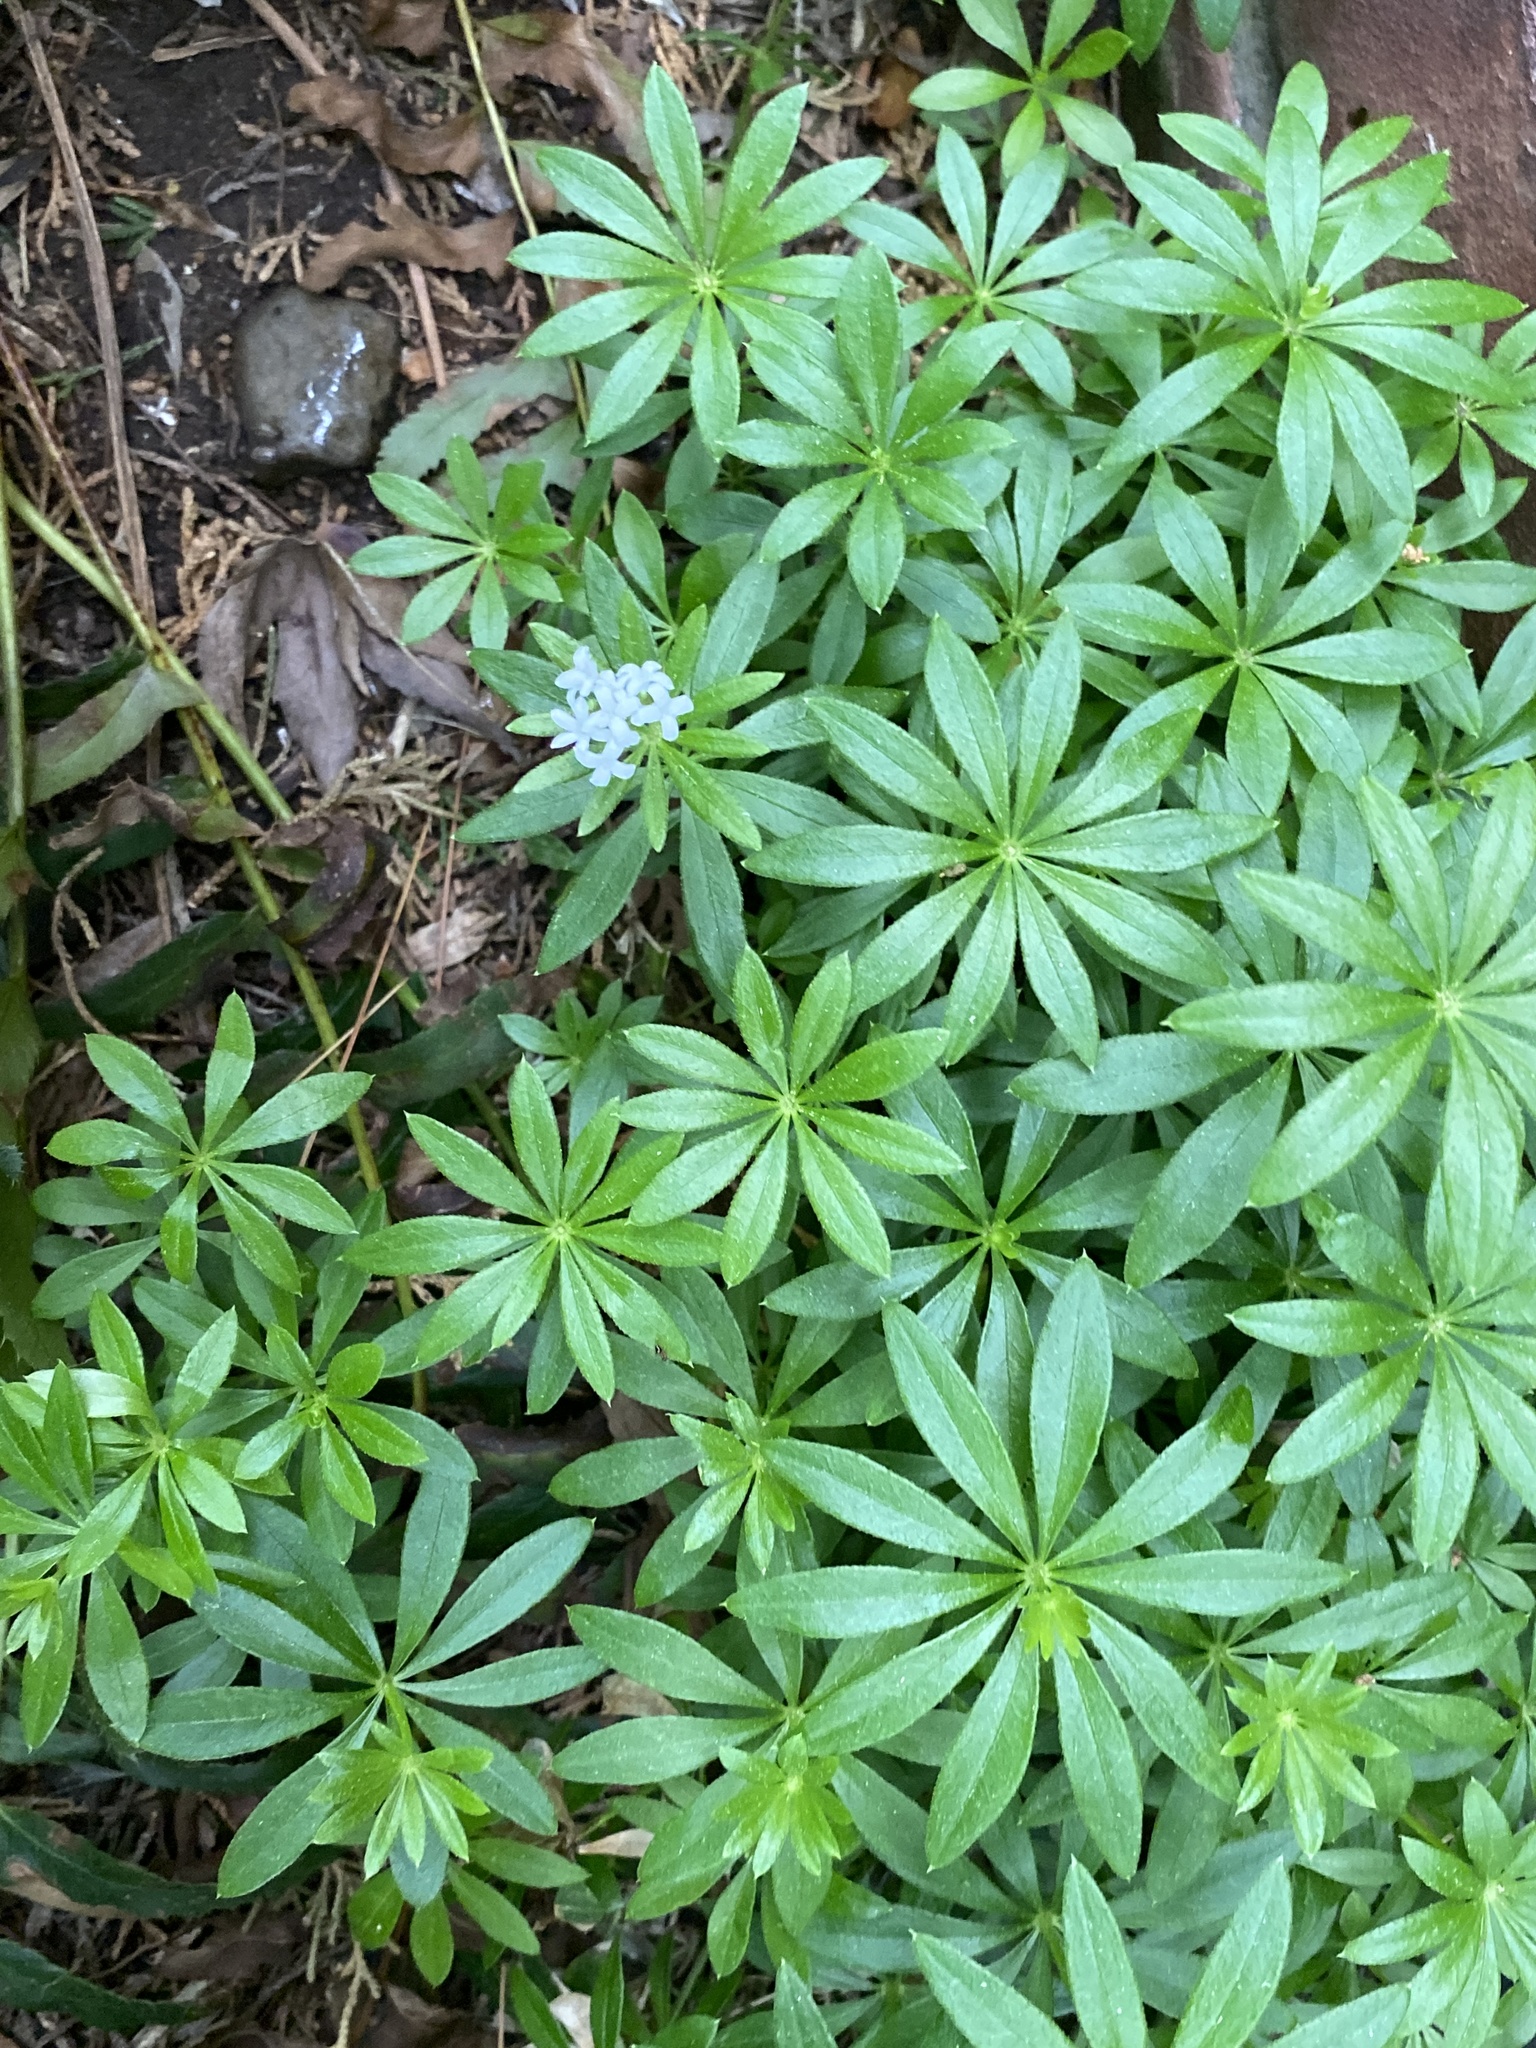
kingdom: Plantae
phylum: Tracheophyta
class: Magnoliopsida
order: Gentianales
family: Rubiaceae
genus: Galium
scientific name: Galium odoratum
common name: Sweet woodruff
